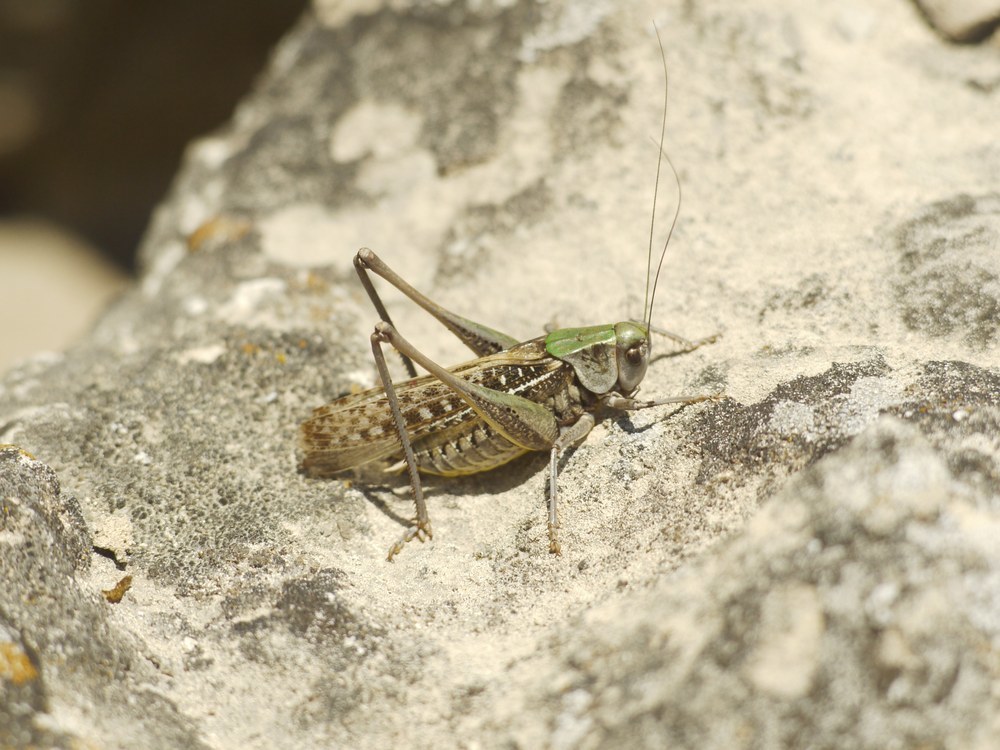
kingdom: Animalia
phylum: Arthropoda
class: Insecta
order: Orthoptera
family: Tettigoniidae
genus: Decticus
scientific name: Decticus verrucivorus
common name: Wart-biter
